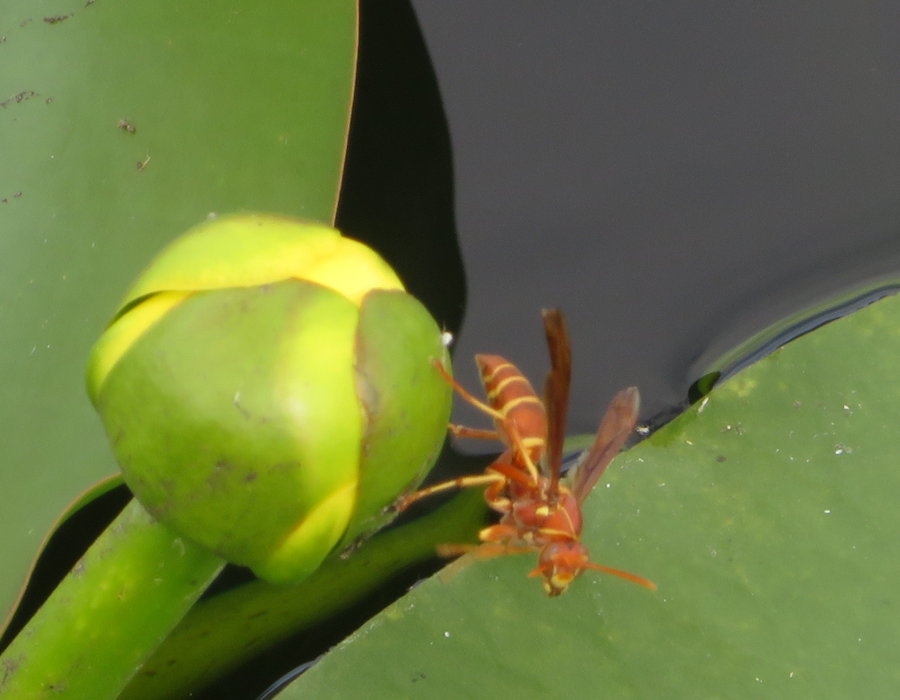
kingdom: Animalia
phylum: Arthropoda
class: Insecta
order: Hymenoptera
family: Eumenidae
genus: Polistes
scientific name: Polistes bellicosus
